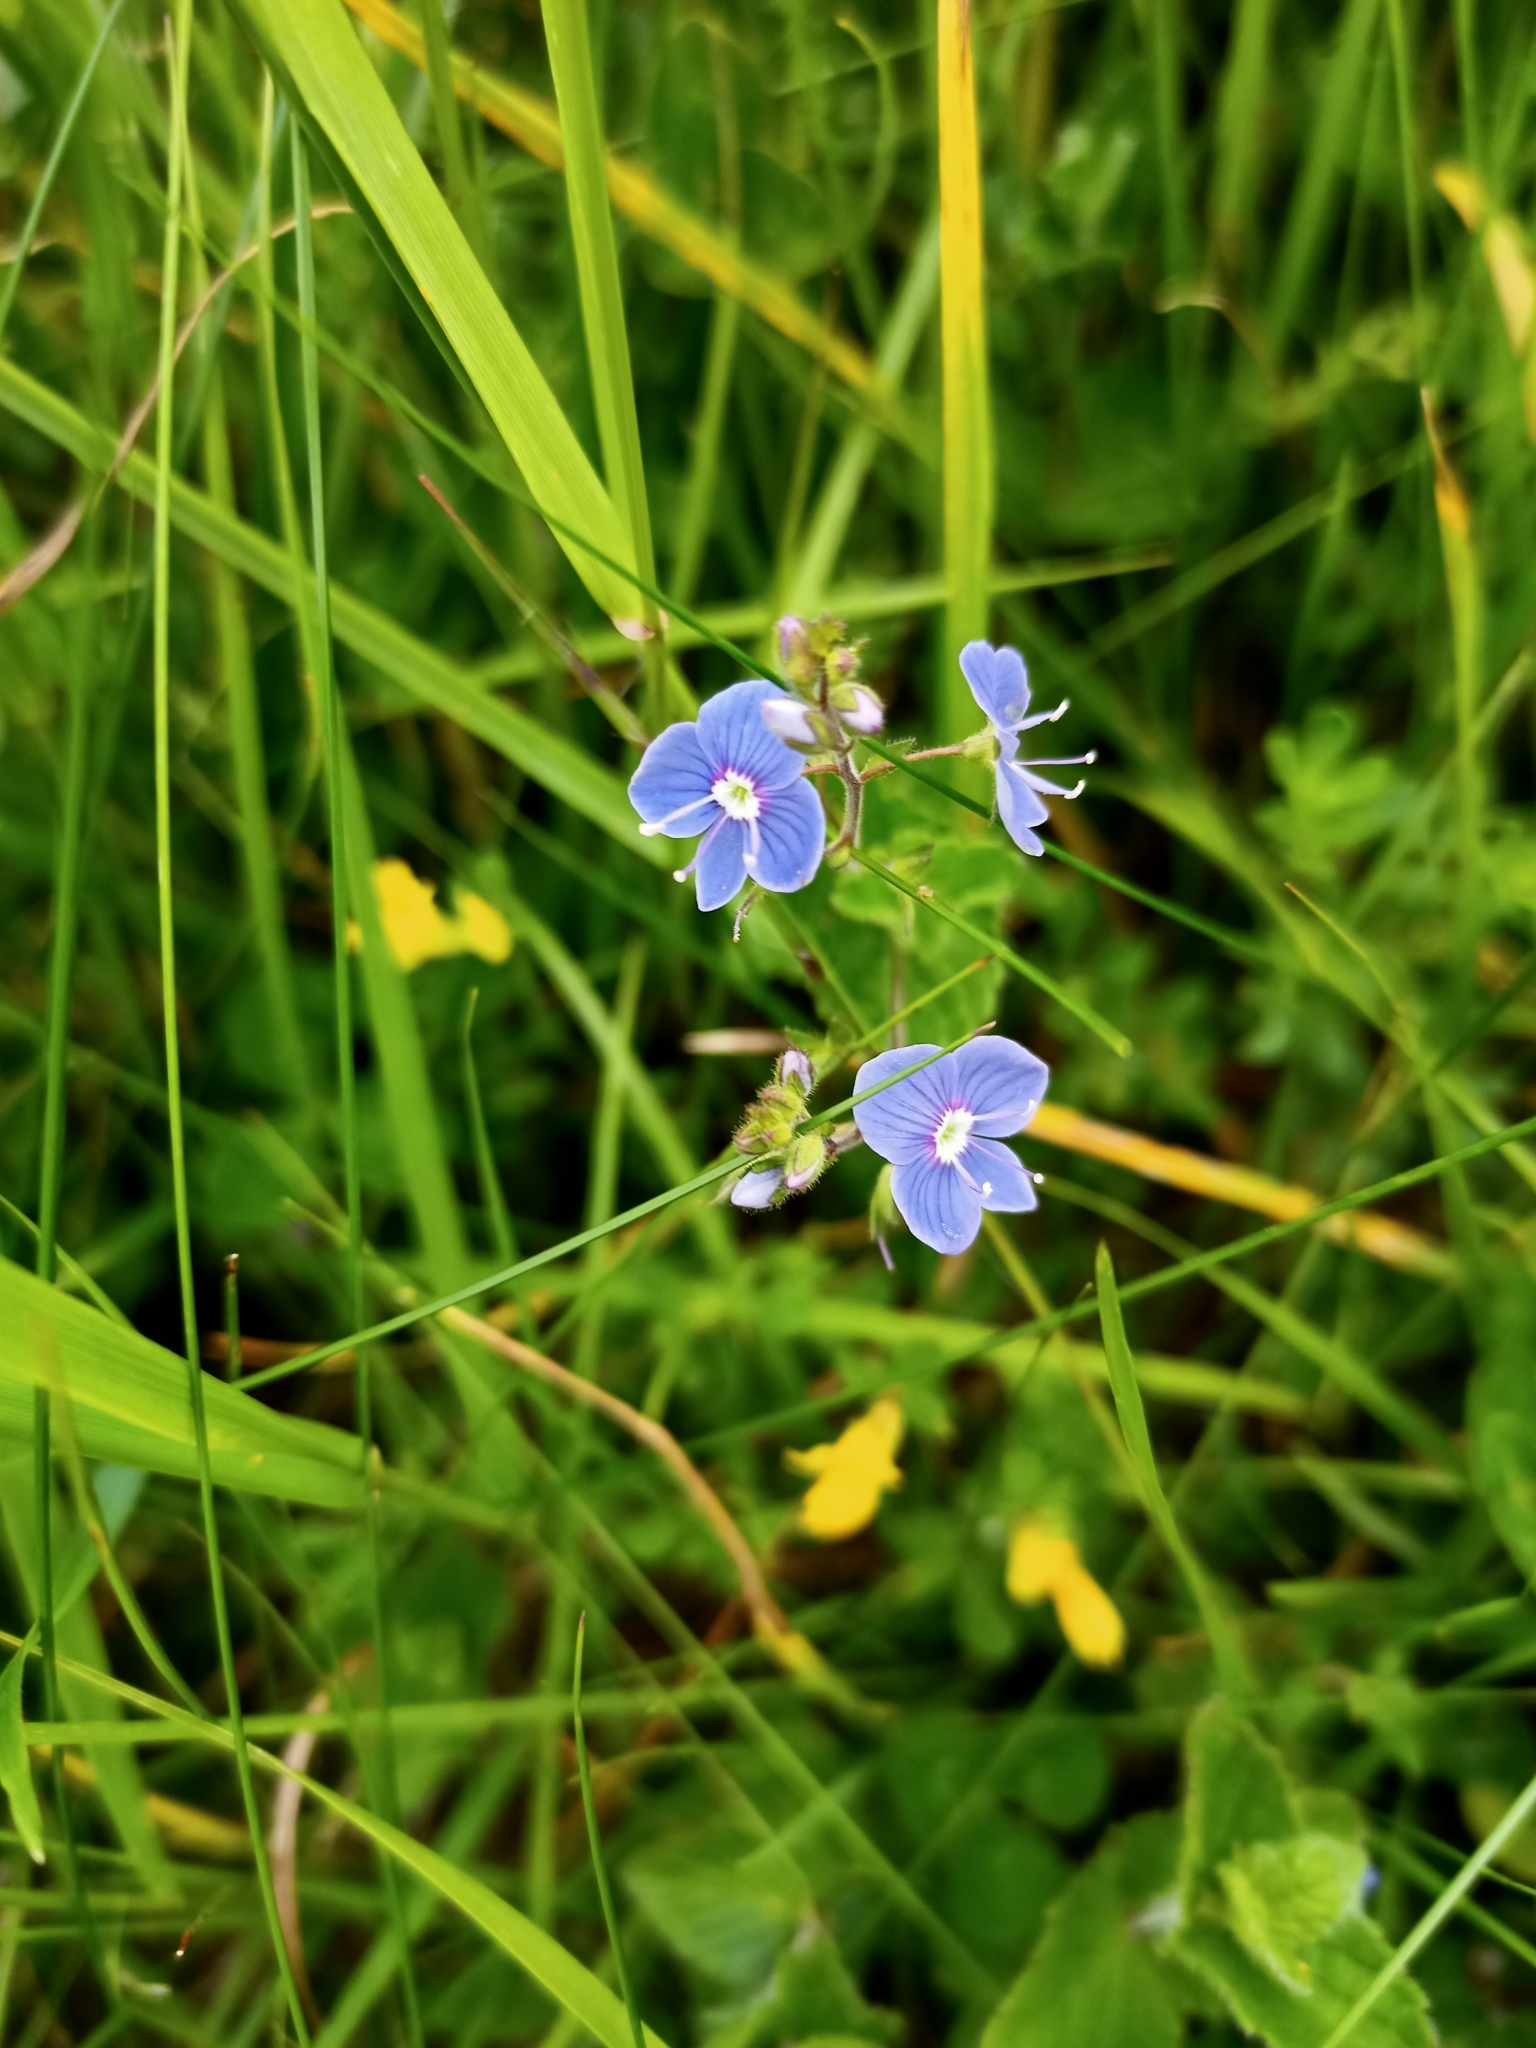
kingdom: Plantae
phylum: Tracheophyta
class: Magnoliopsida
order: Lamiales
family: Plantaginaceae
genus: Veronica
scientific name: Veronica chamaedrys
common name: Germander speedwell
